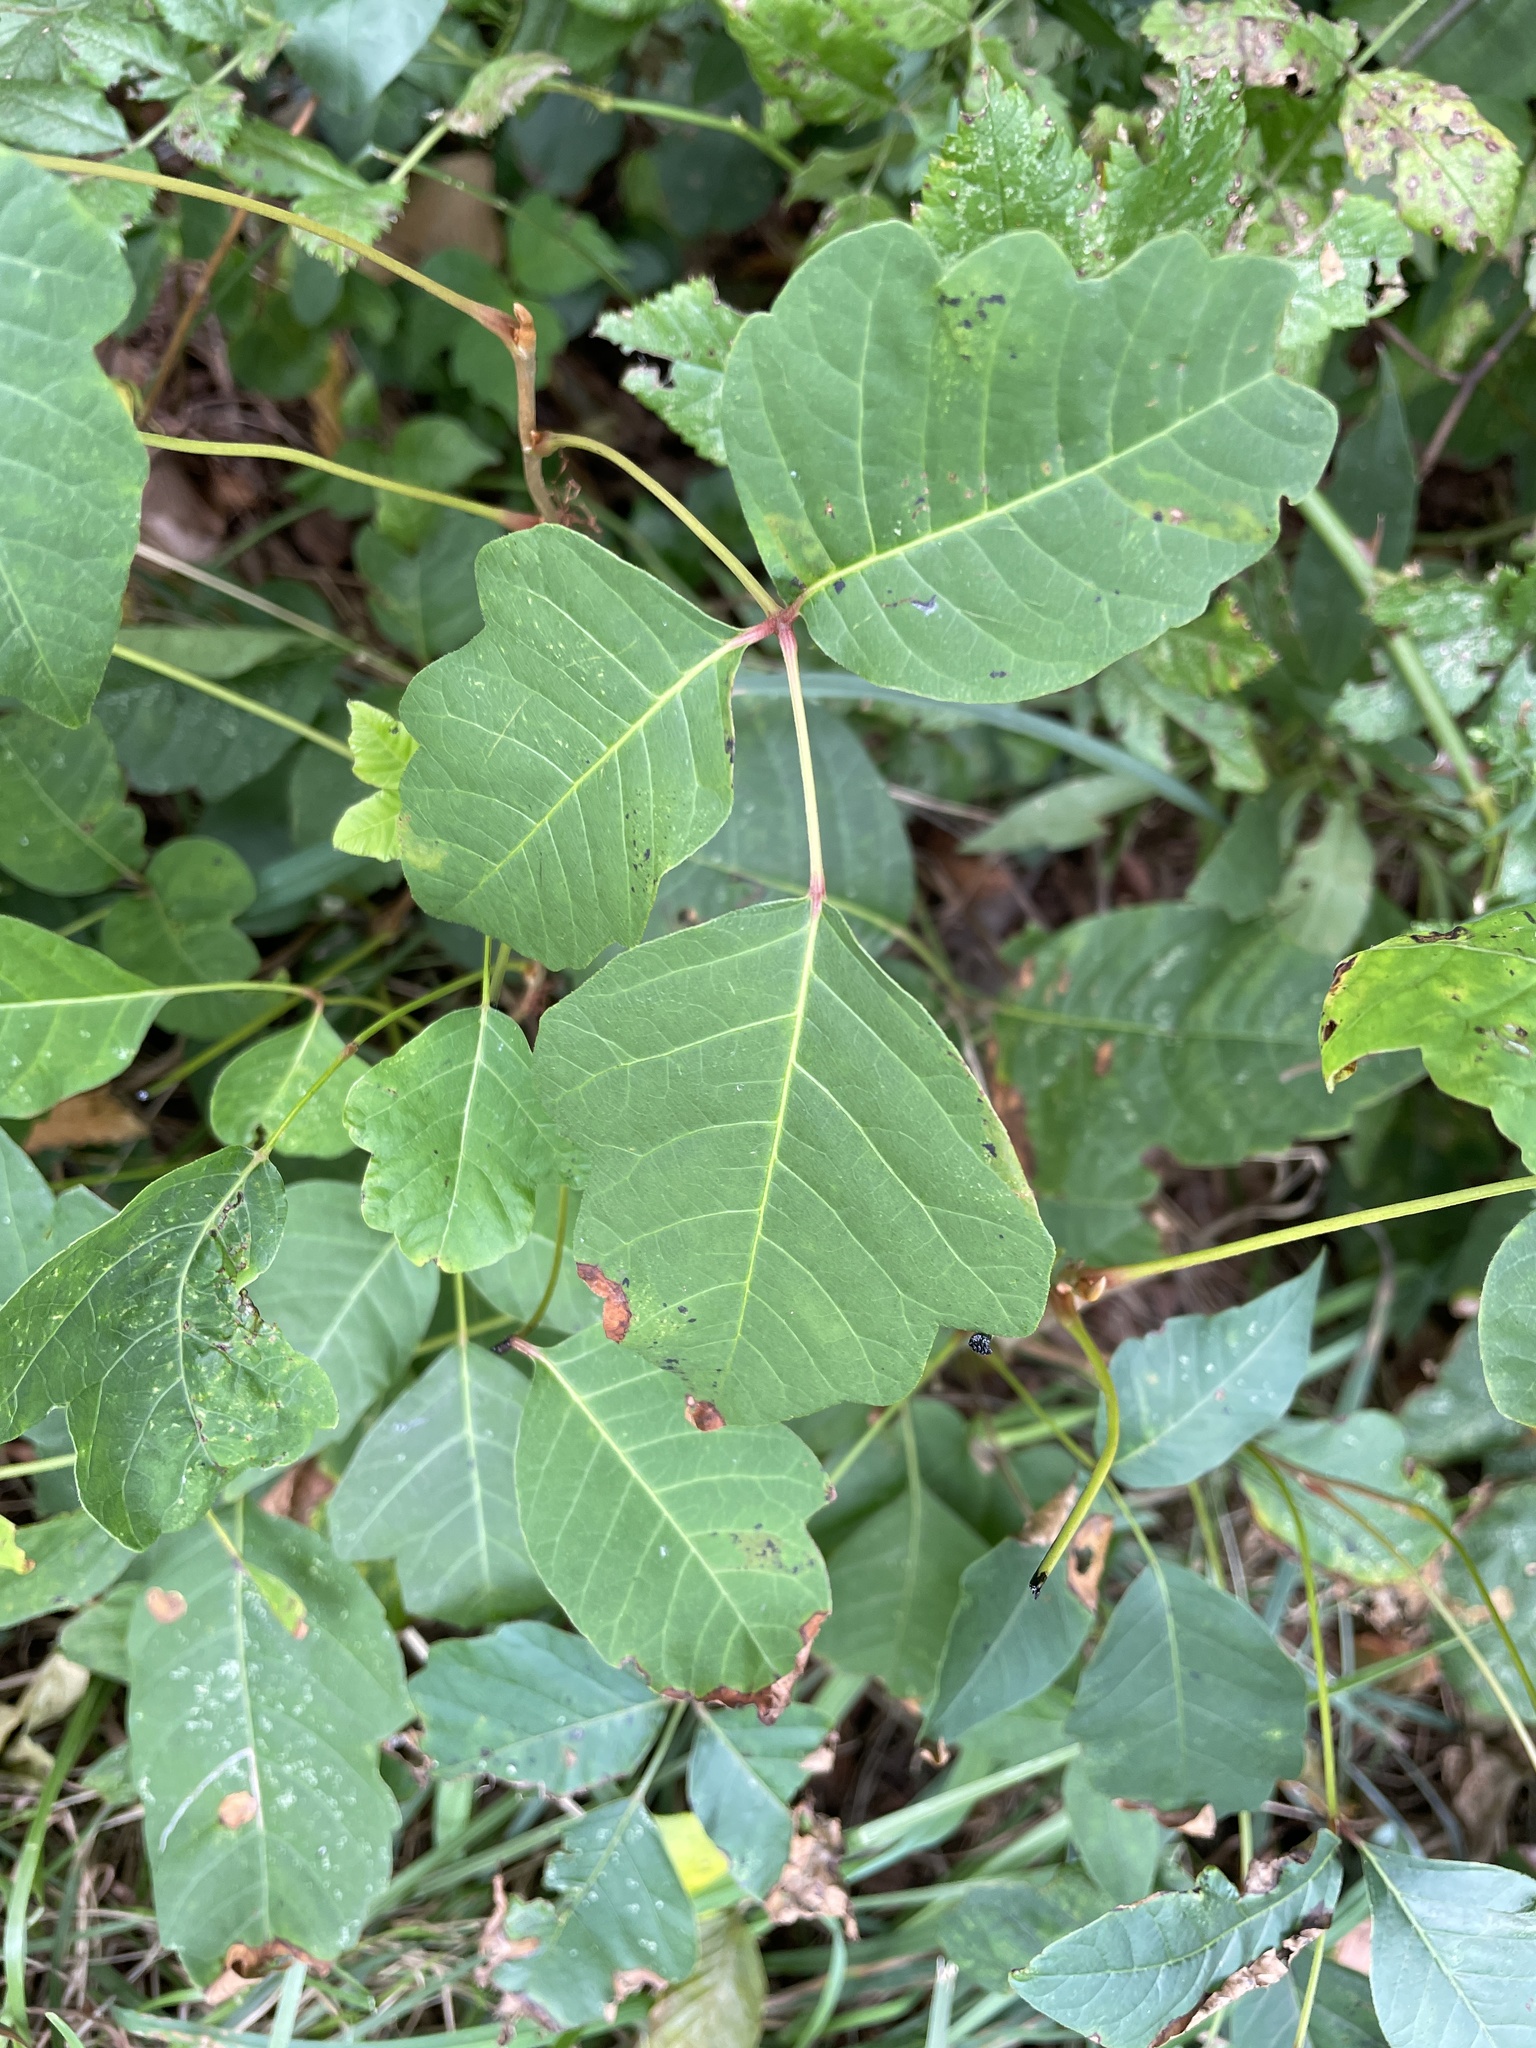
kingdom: Plantae
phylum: Tracheophyta
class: Magnoliopsida
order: Sapindales
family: Anacardiaceae
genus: Toxicodendron
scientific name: Toxicodendron radicans
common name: Poison ivy
